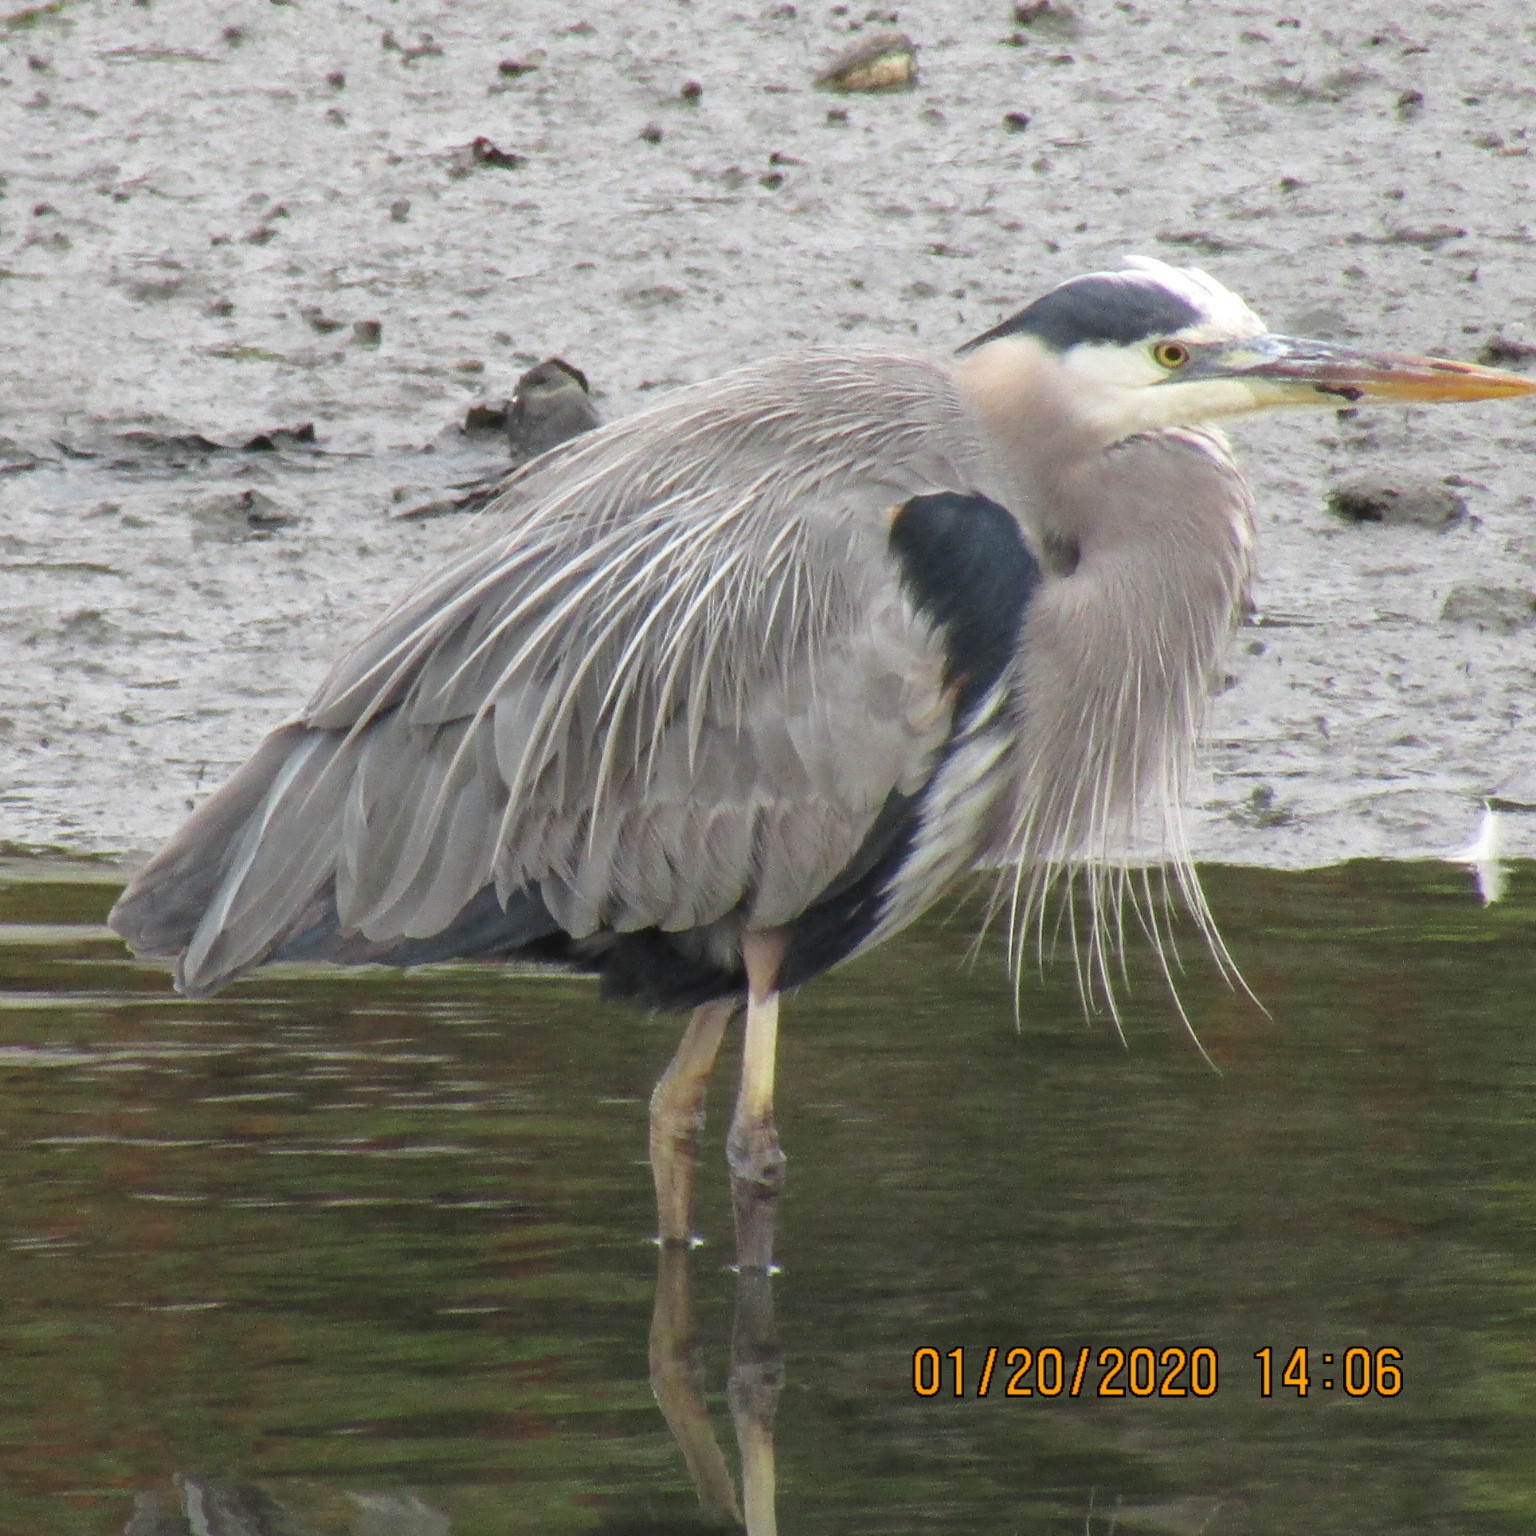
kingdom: Animalia
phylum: Chordata
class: Aves
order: Pelecaniformes
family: Ardeidae
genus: Ardea
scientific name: Ardea herodias
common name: Great blue heron
